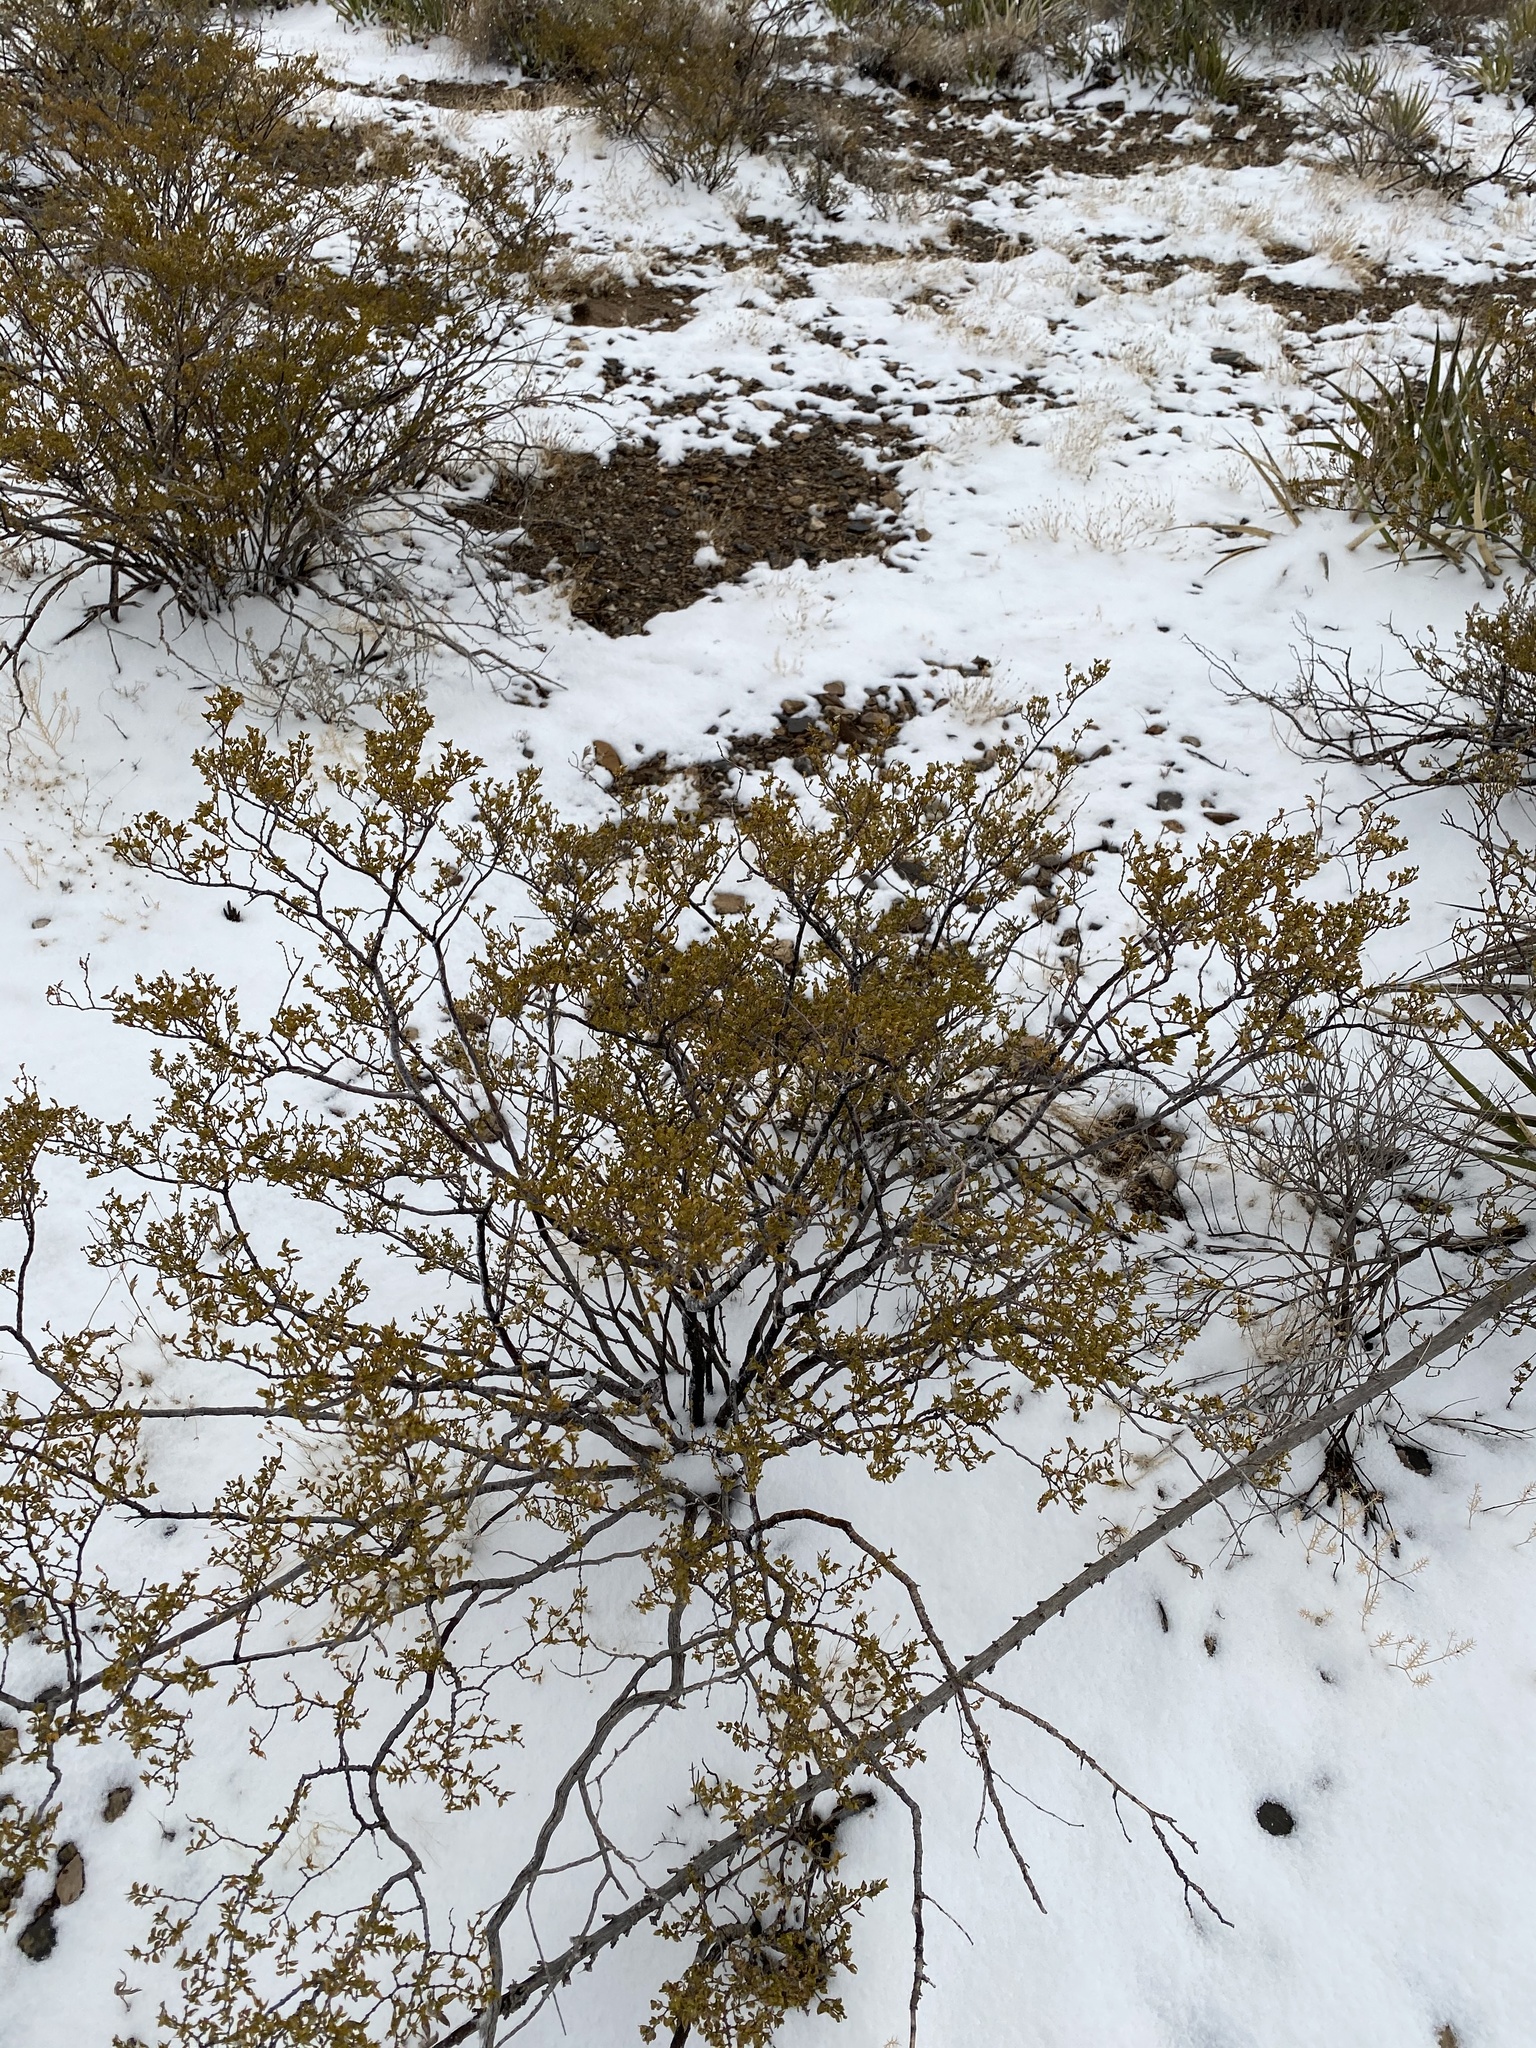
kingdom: Plantae
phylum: Tracheophyta
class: Magnoliopsida
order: Zygophyllales
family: Zygophyllaceae
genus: Larrea
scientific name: Larrea tridentata
